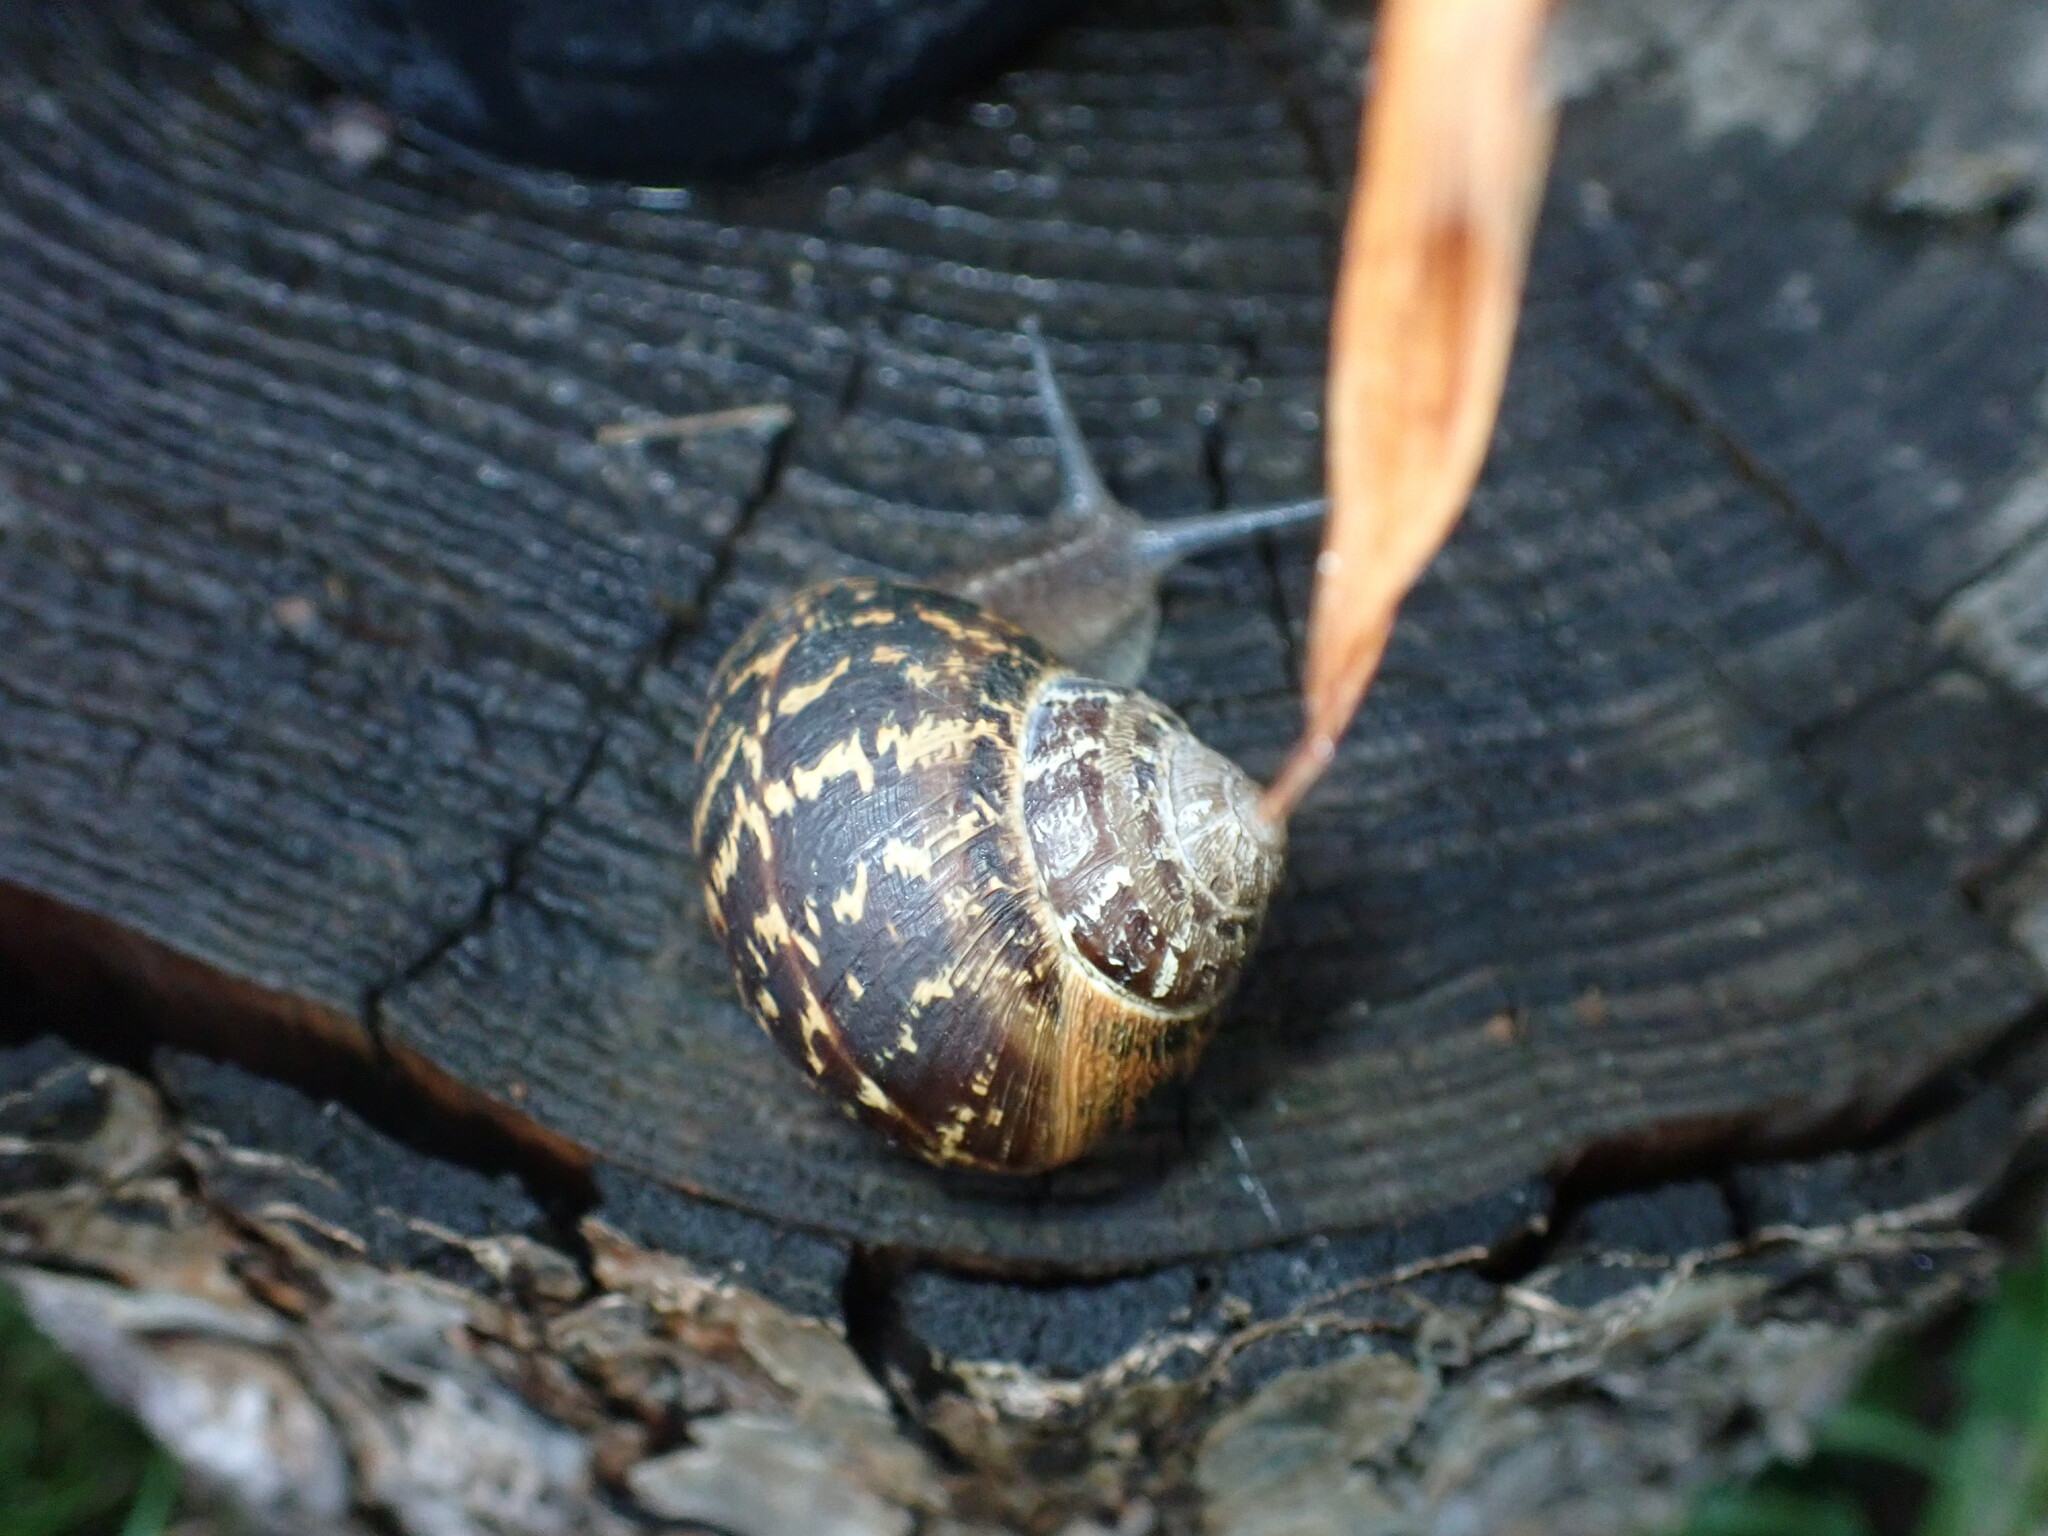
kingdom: Animalia
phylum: Mollusca
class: Gastropoda
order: Stylommatophora
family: Helicidae
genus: Cornu
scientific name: Cornu aspersum
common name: Brown garden snail
